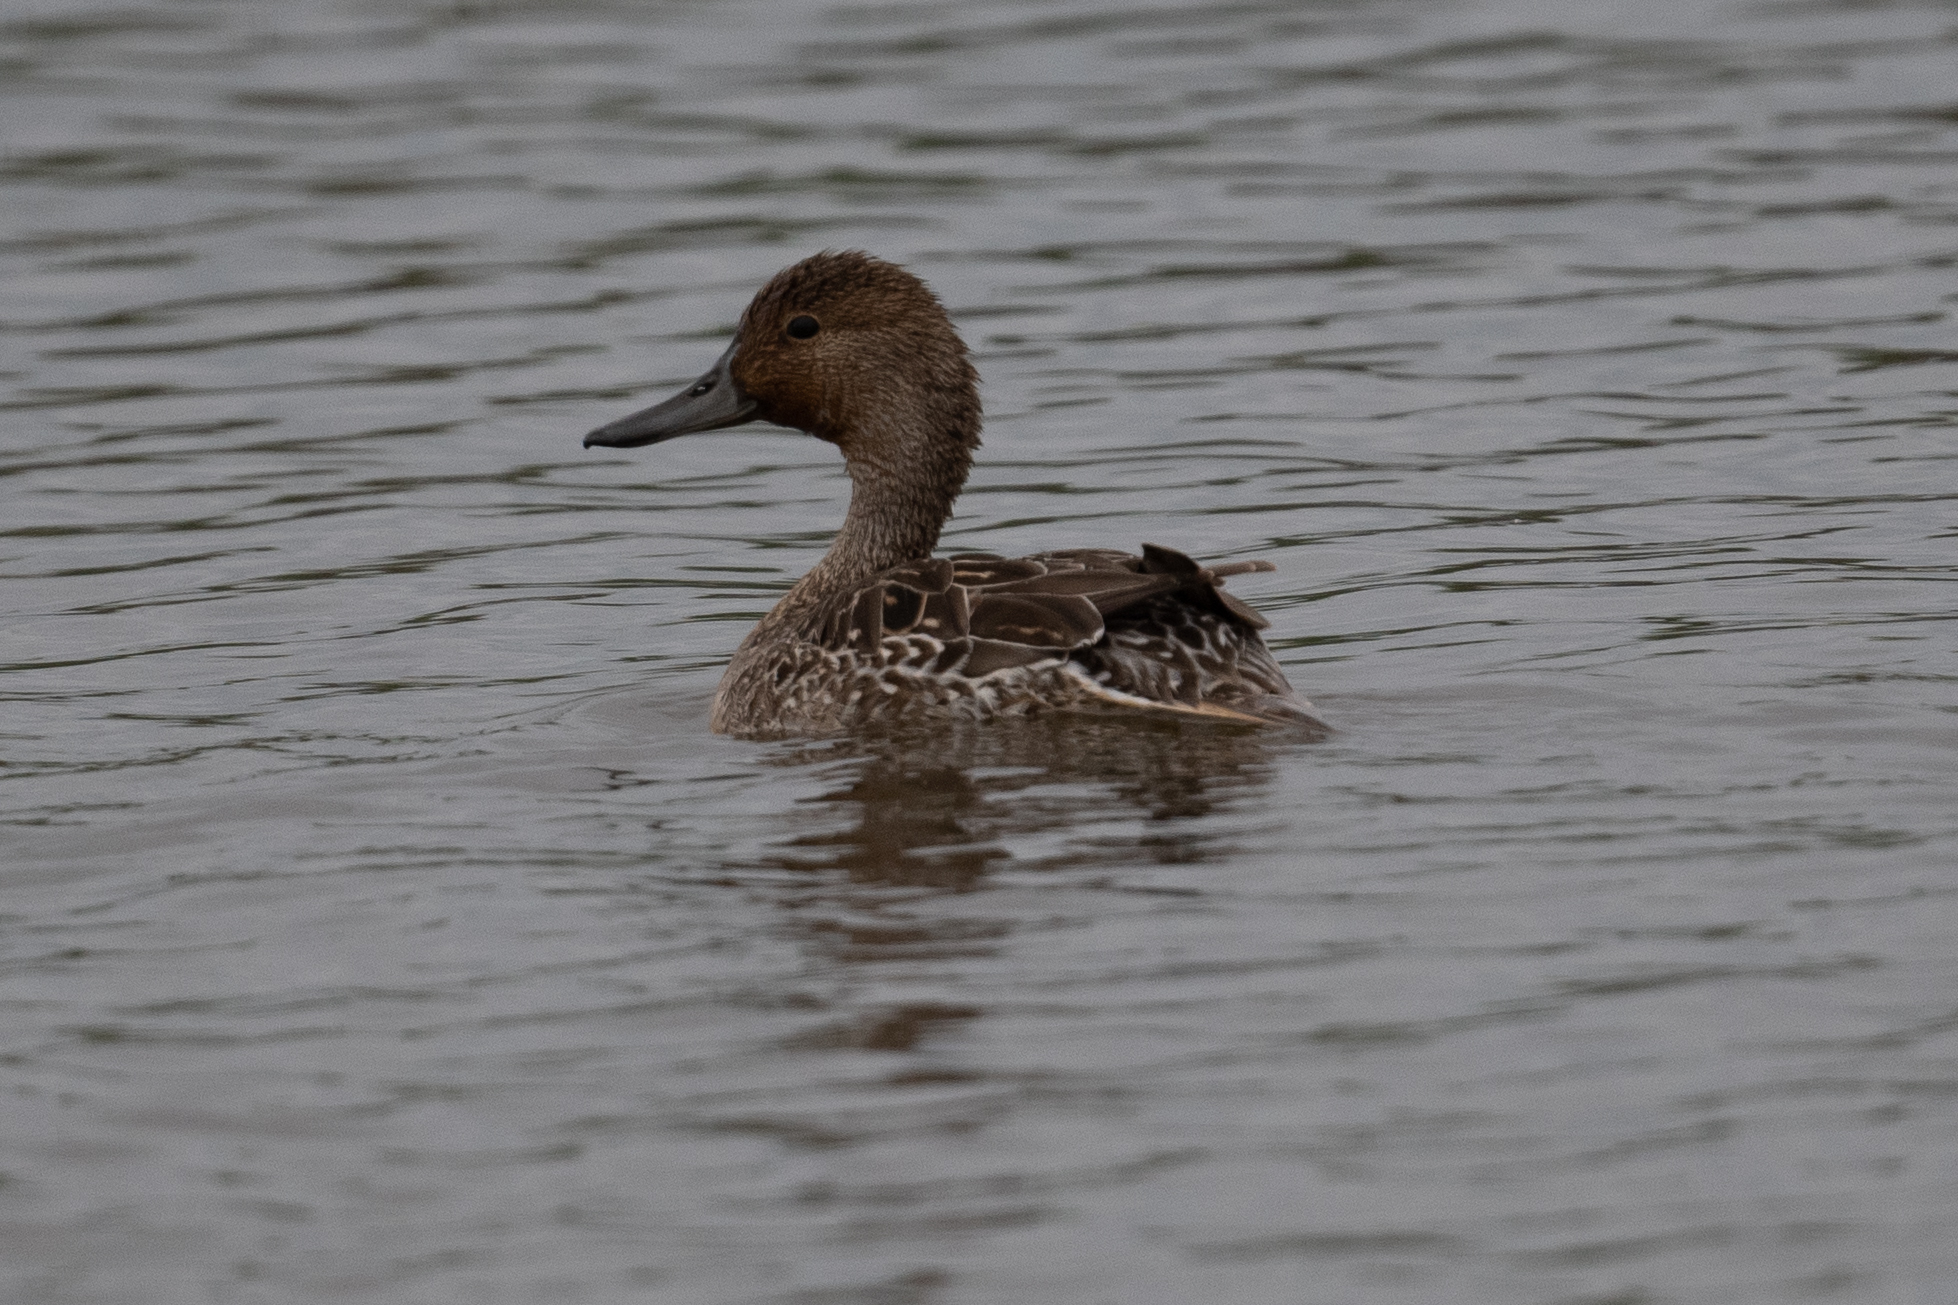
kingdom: Animalia
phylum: Chordata
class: Aves
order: Anseriformes
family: Anatidae
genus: Anas
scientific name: Anas acuta
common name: Northern pintail
